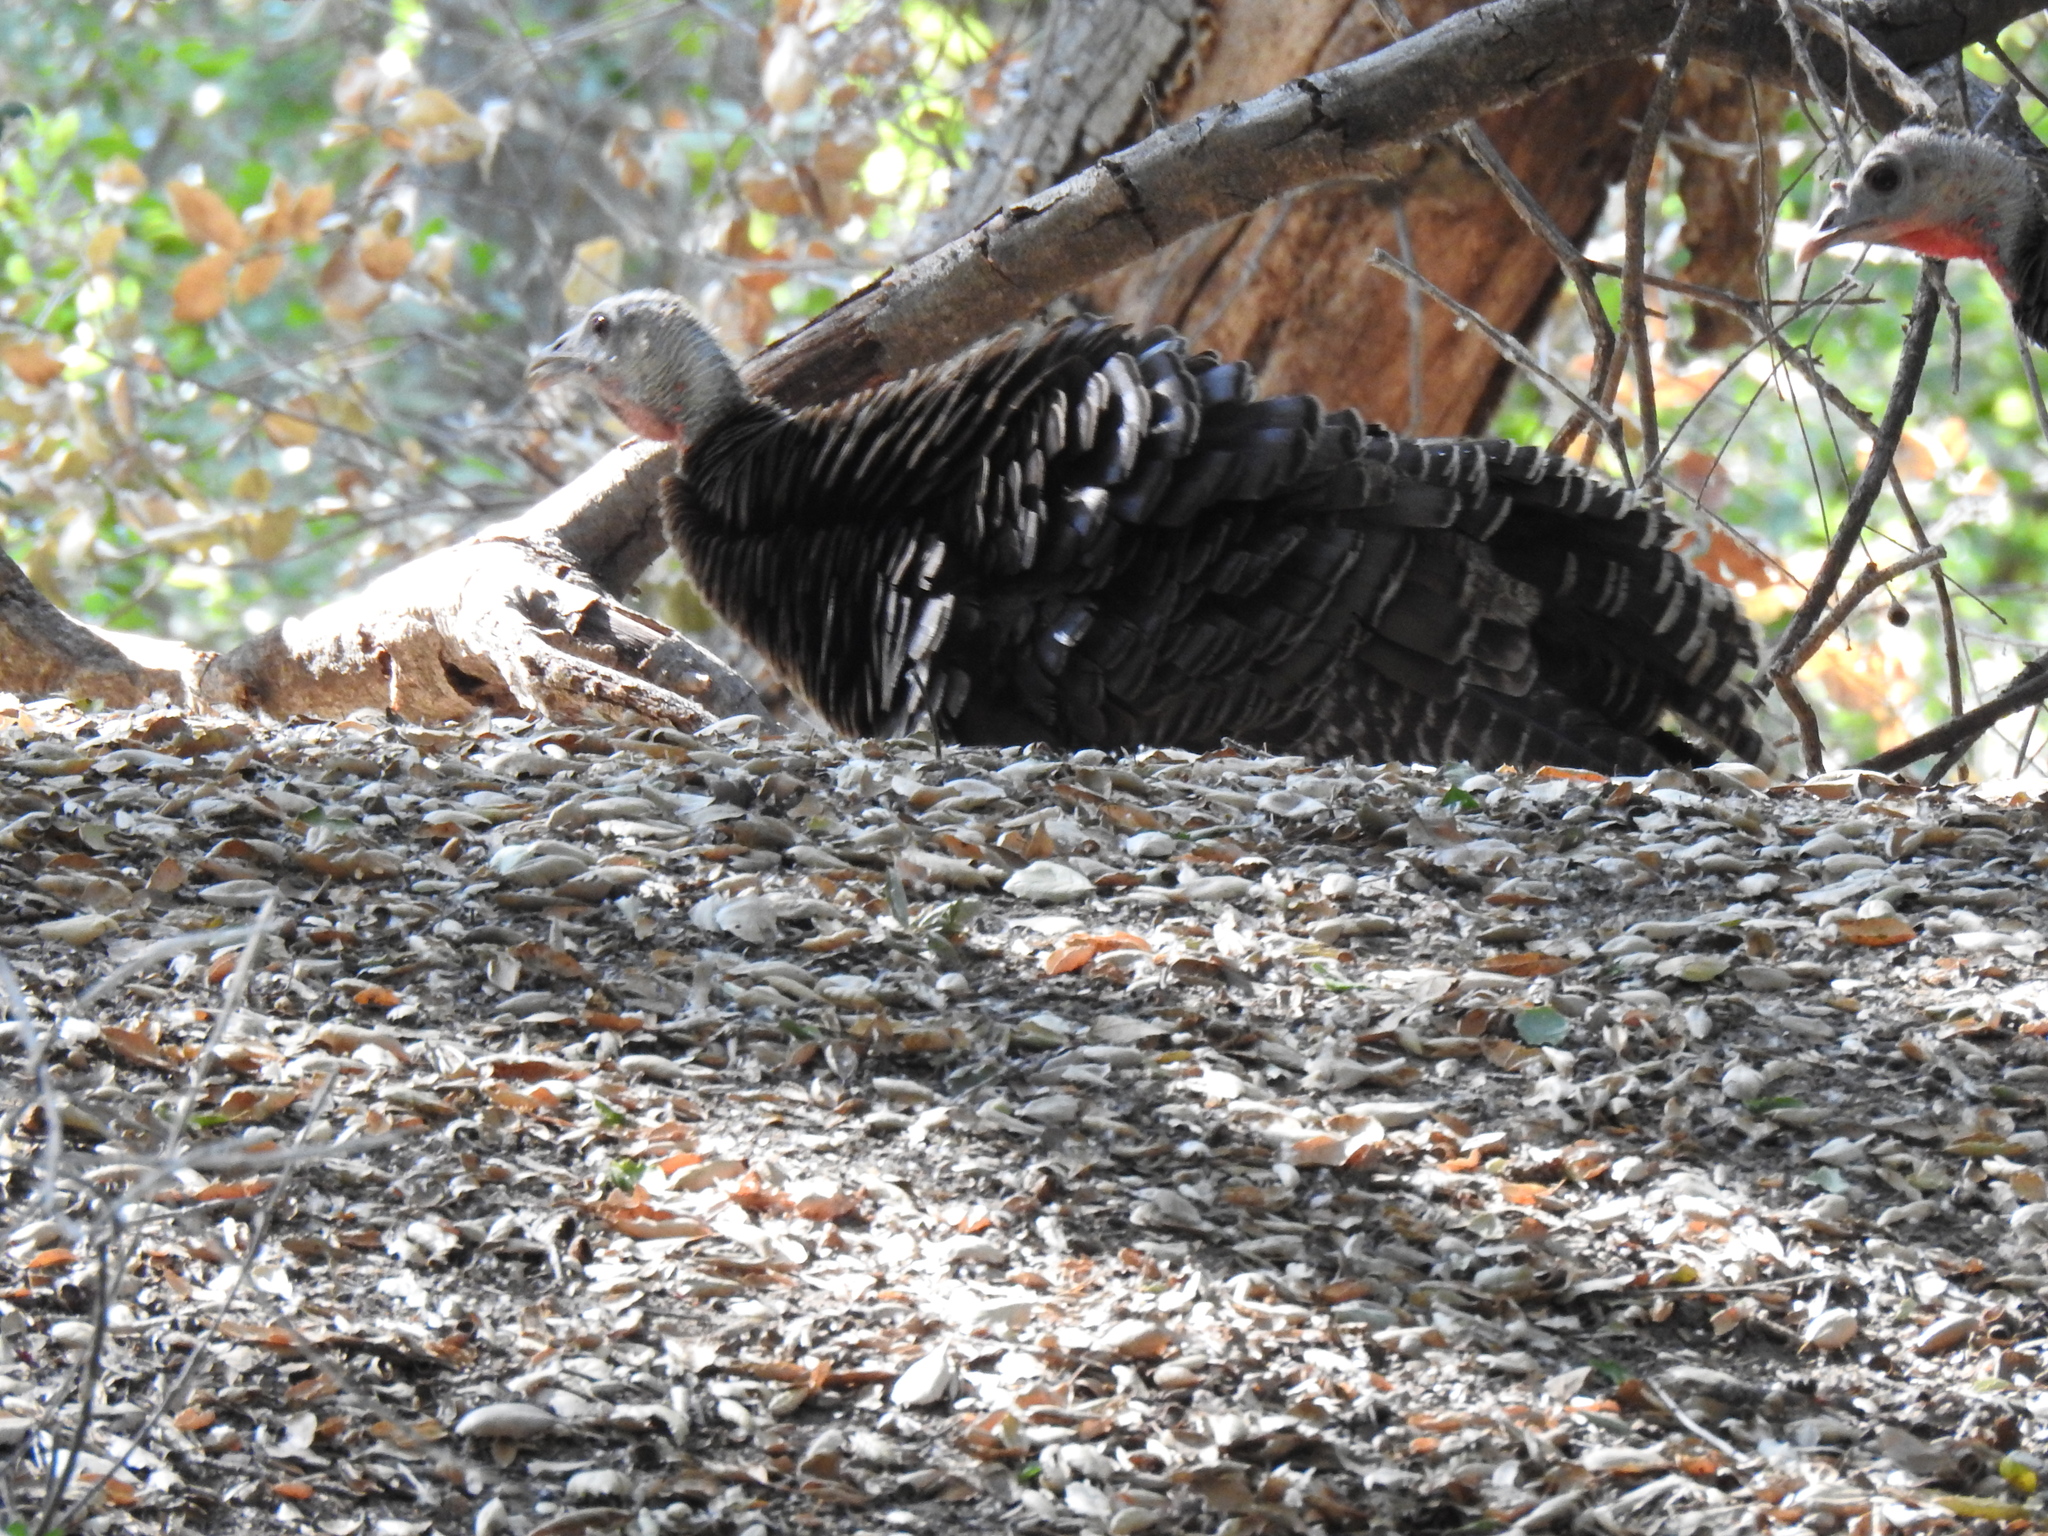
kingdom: Animalia
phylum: Chordata
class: Aves
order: Galliformes
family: Phasianidae
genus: Meleagris
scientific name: Meleagris gallopavo
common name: Wild turkey
